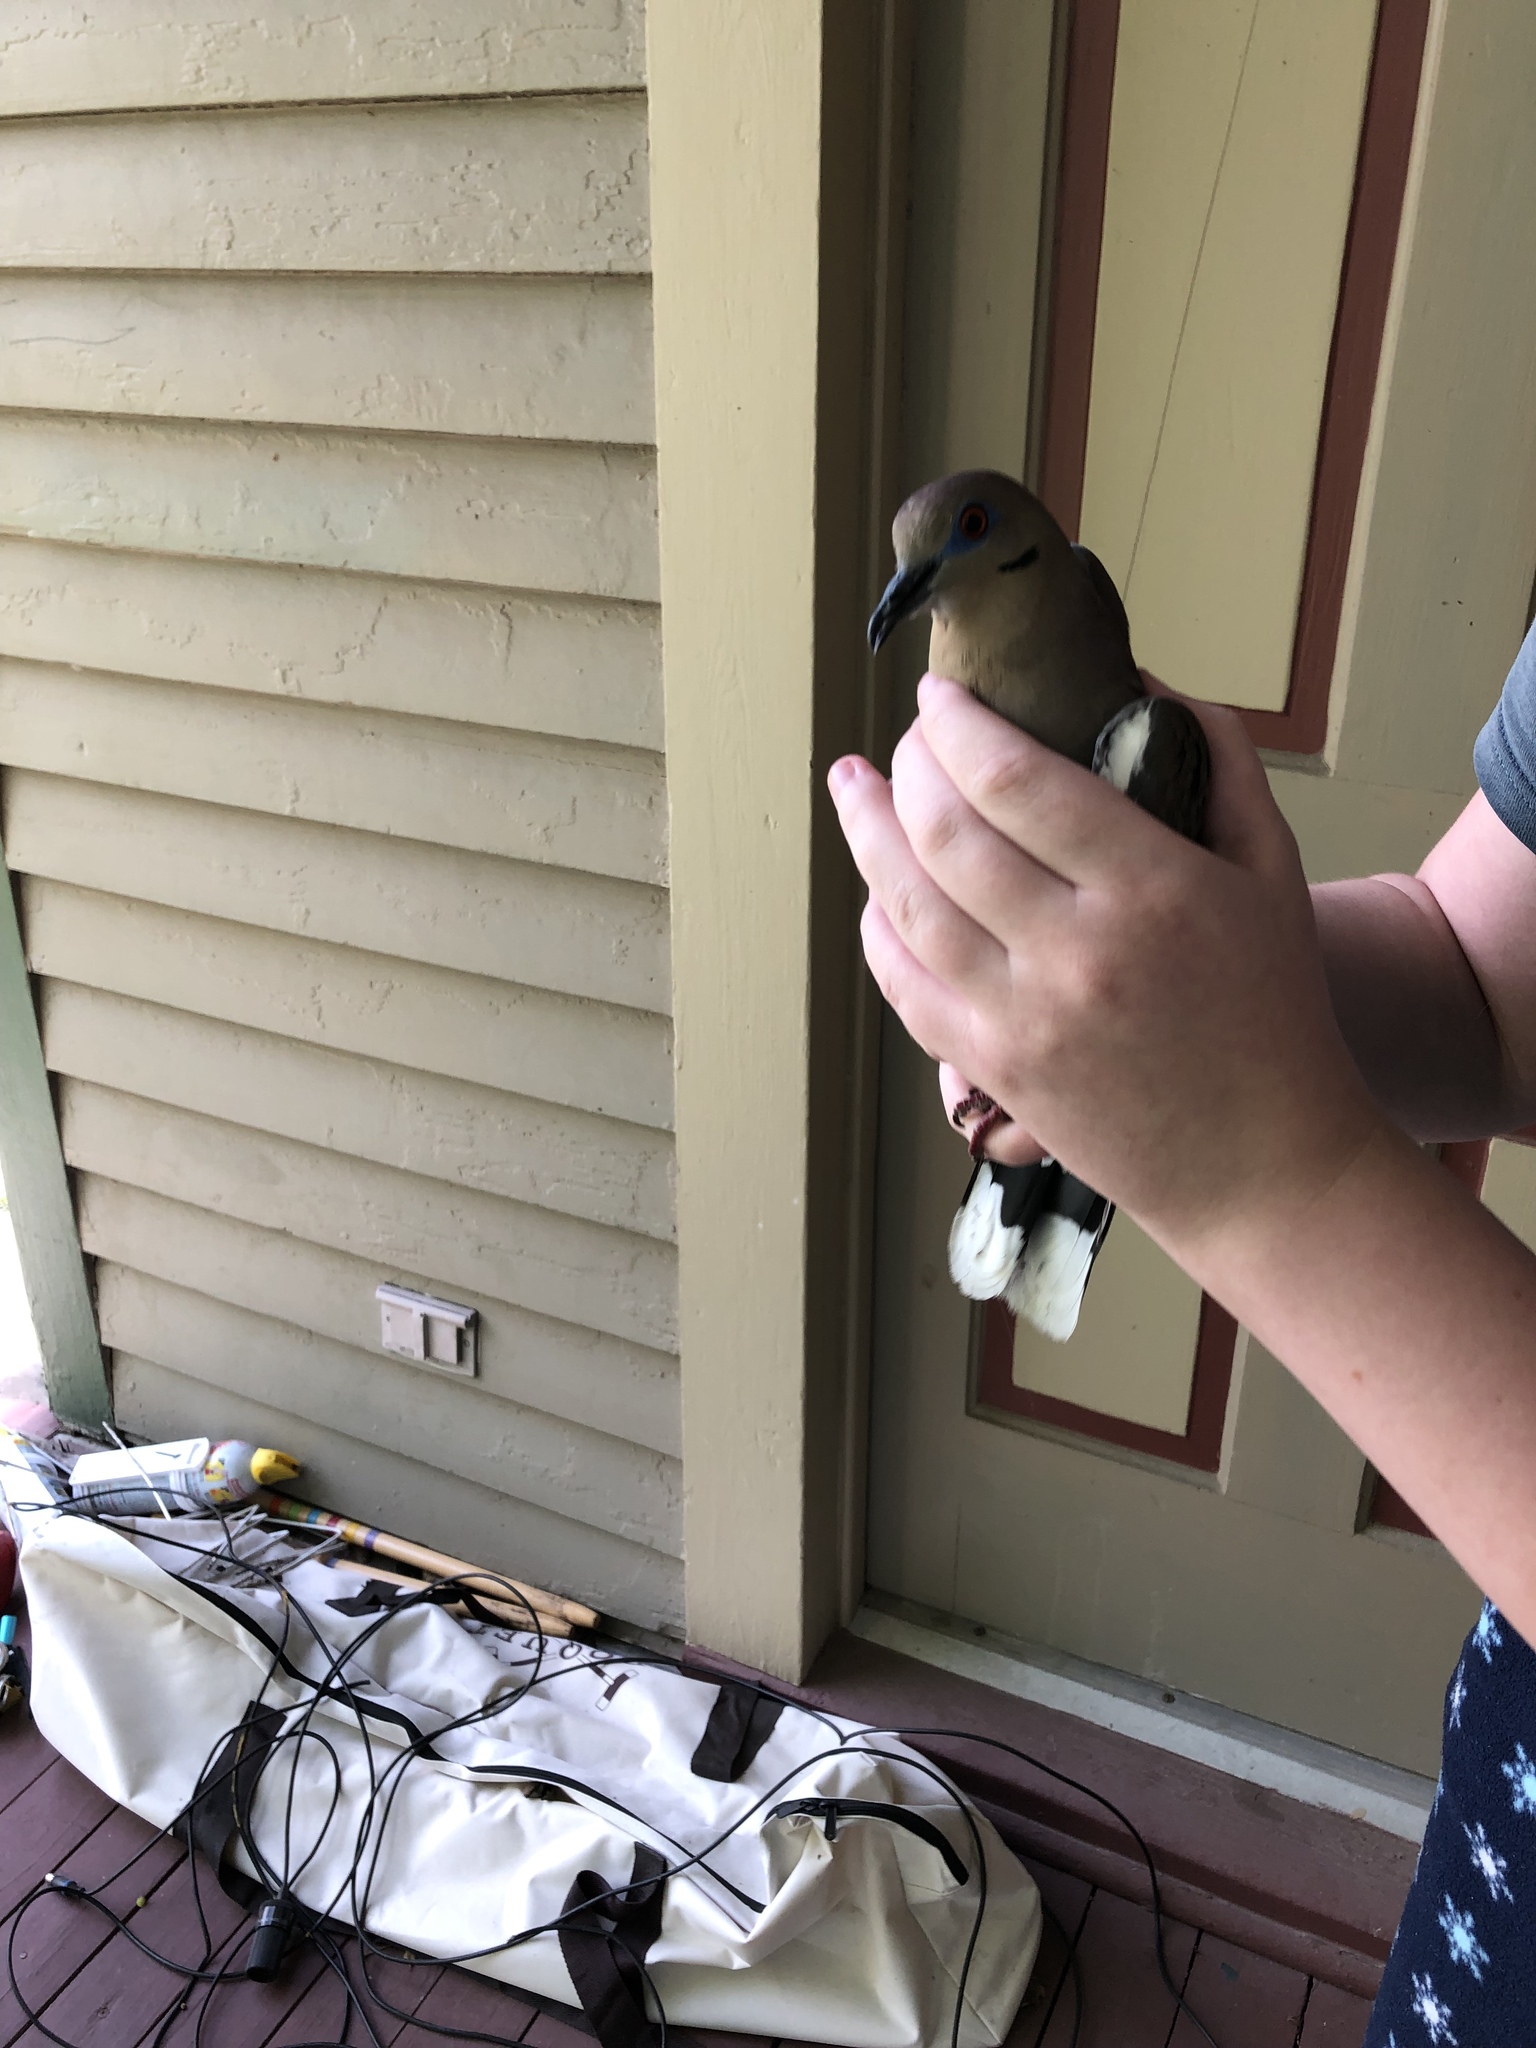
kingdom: Animalia
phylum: Chordata
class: Aves
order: Columbiformes
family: Columbidae
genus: Zenaida
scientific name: Zenaida asiatica
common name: White-winged dove
